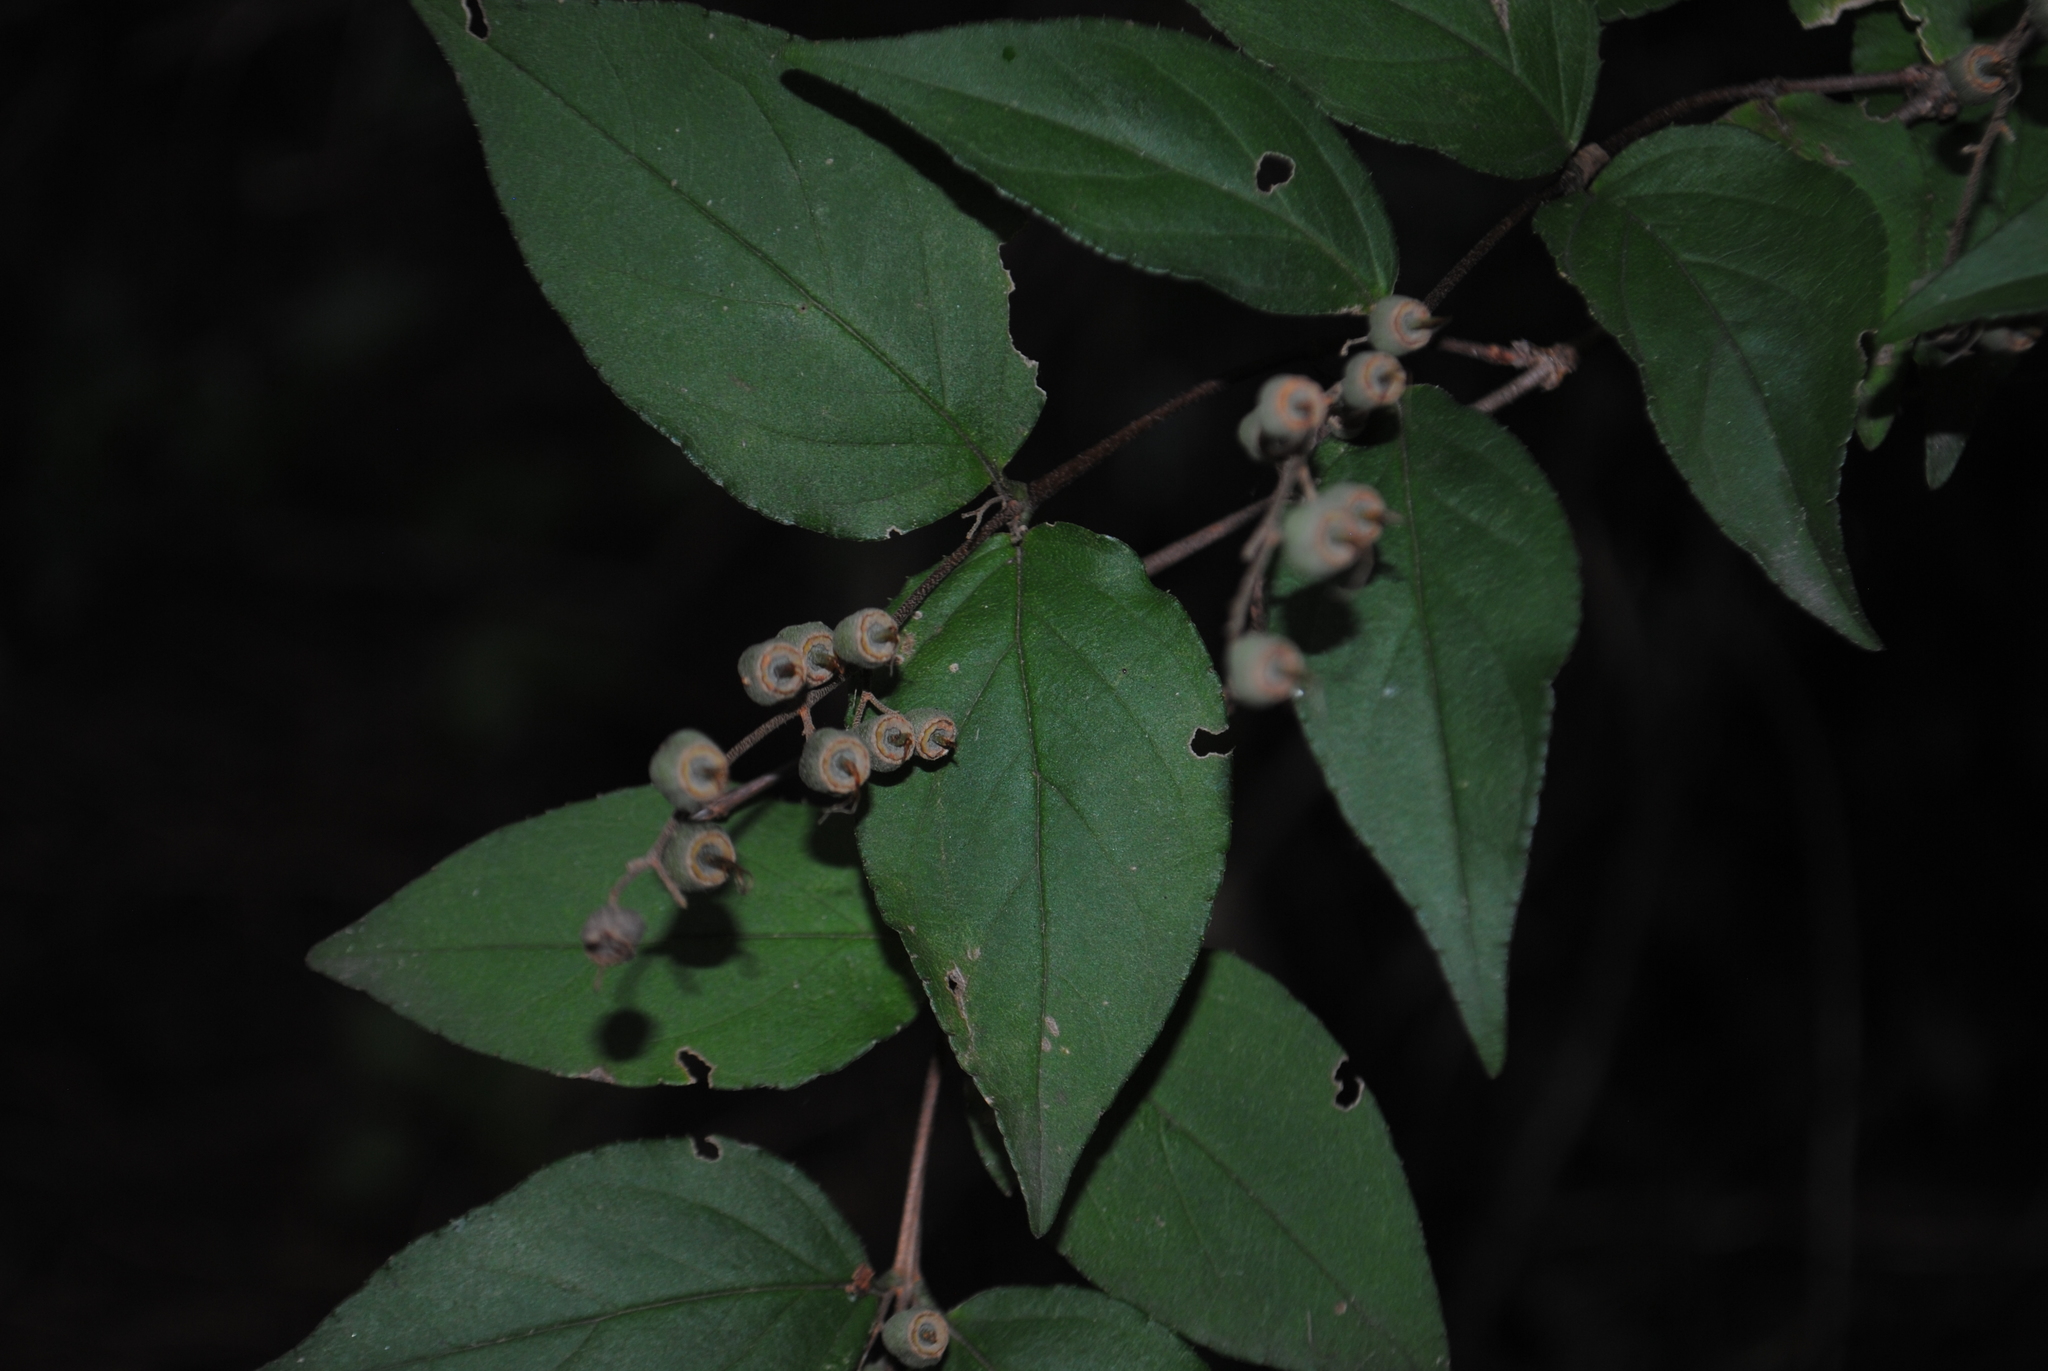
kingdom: Plantae
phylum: Tracheophyta
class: Magnoliopsida
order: Cornales
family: Hydrangeaceae
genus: Deutzia
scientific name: Deutzia scabra
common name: Deutzia
